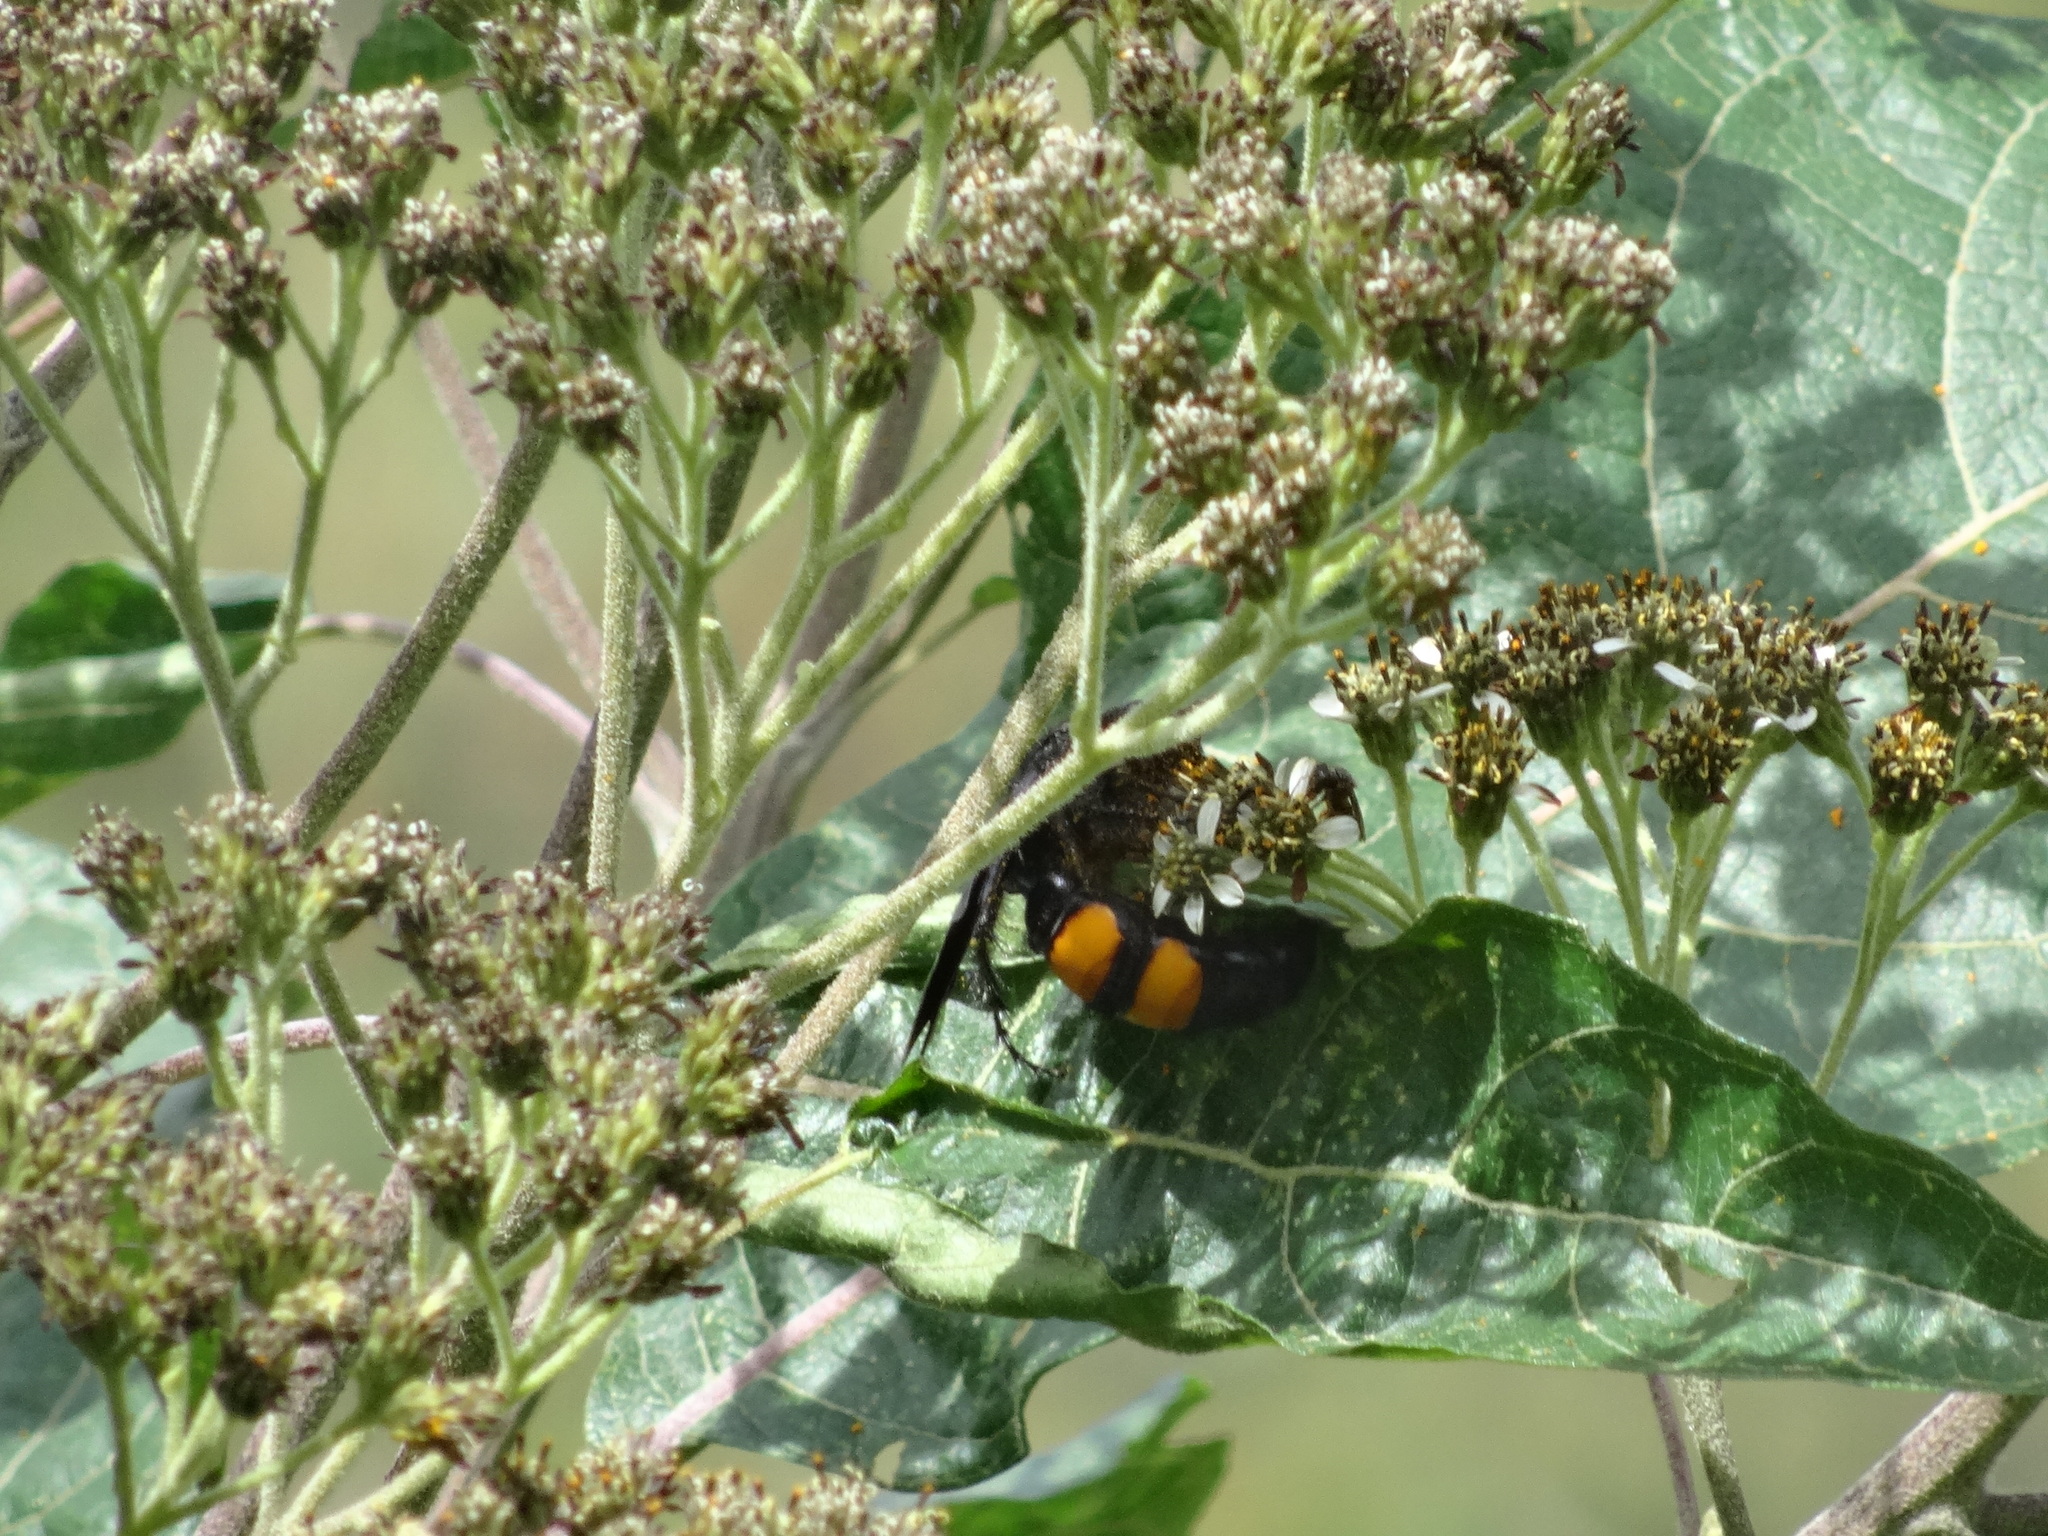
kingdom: Animalia
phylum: Arthropoda
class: Insecta
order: Hymenoptera
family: Scoliidae
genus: Pygodasis
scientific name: Pygodasis ephippium
